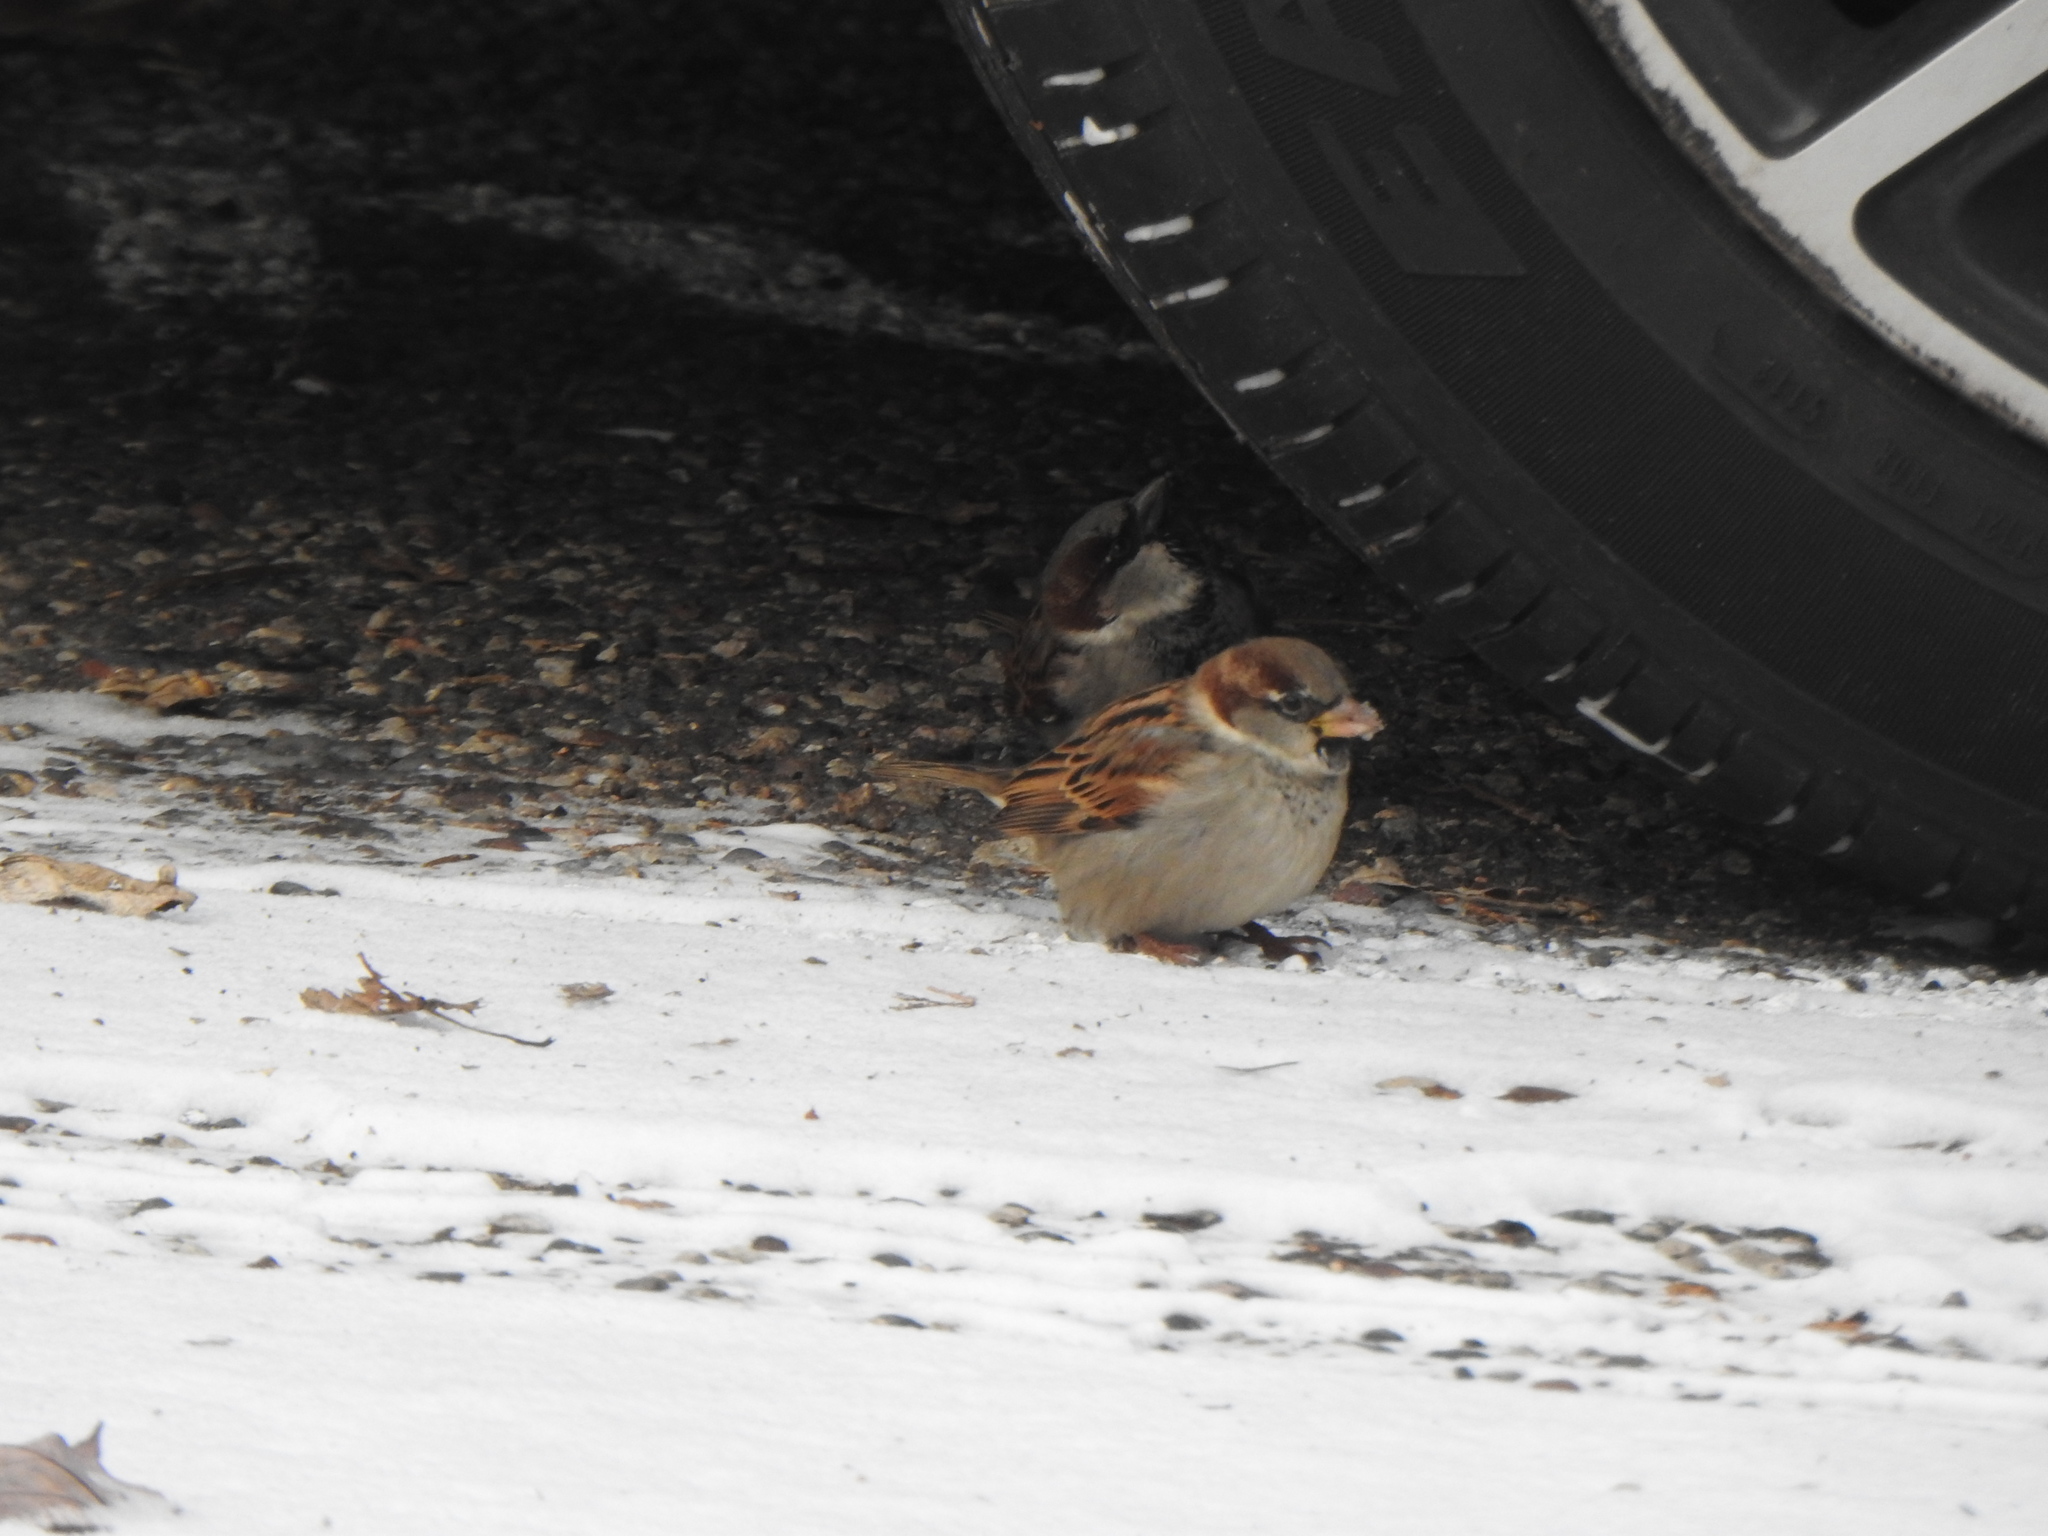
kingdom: Animalia
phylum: Chordata
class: Aves
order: Passeriformes
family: Passeridae
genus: Passer
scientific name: Passer domesticus
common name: House sparrow
